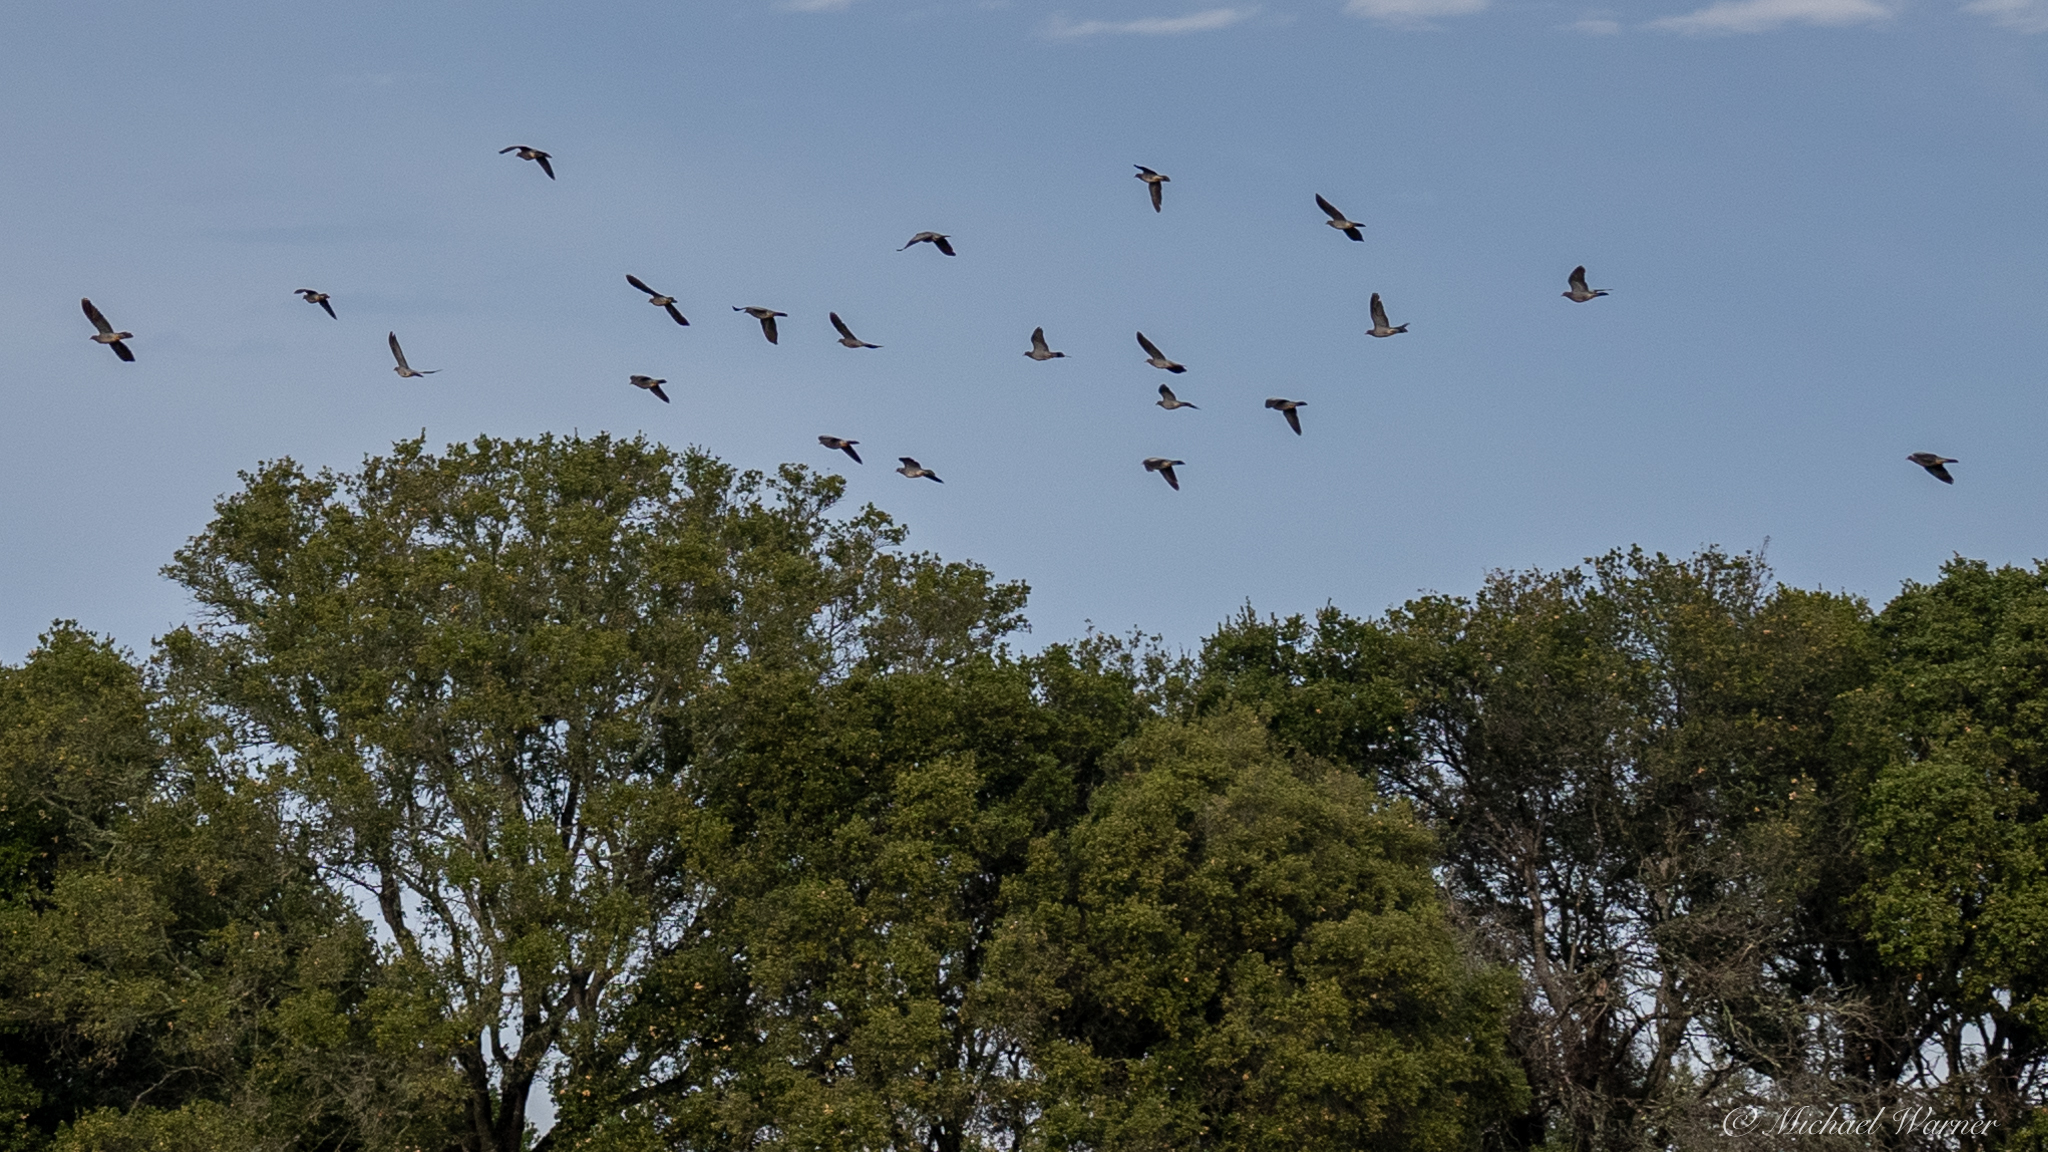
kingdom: Animalia
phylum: Chordata
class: Aves
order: Columbiformes
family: Columbidae
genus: Patagioenas
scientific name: Patagioenas fasciata
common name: Band-tailed pigeon
